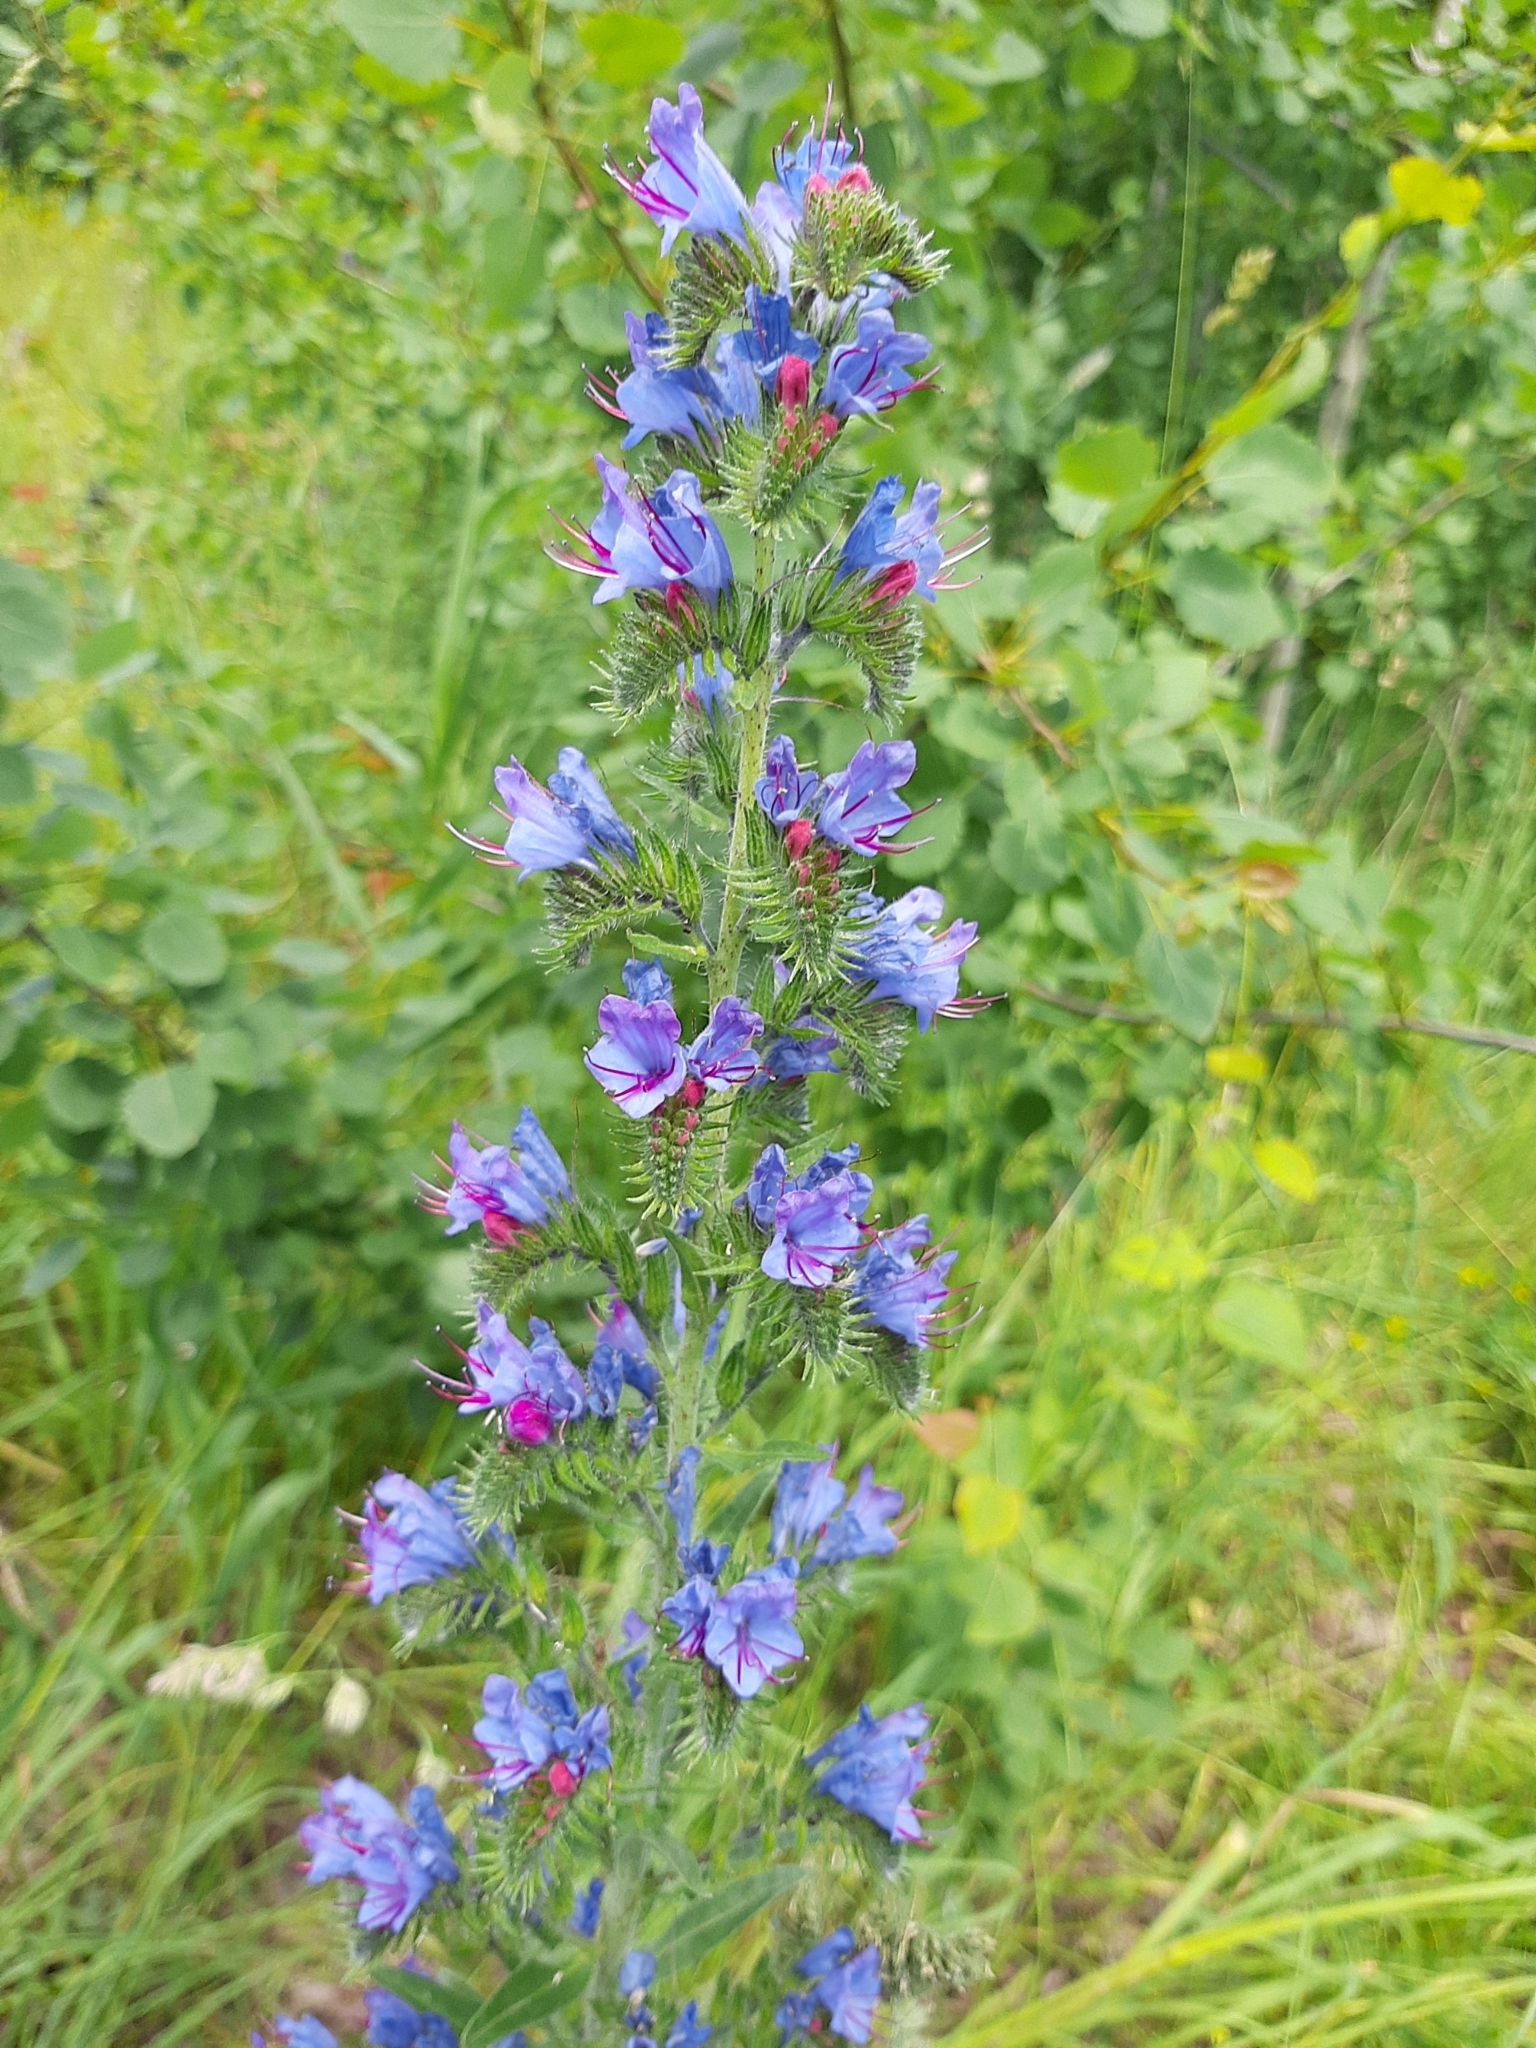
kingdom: Plantae
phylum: Tracheophyta
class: Magnoliopsida
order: Boraginales
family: Boraginaceae
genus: Echium
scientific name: Echium vulgare
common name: Common viper's bugloss
